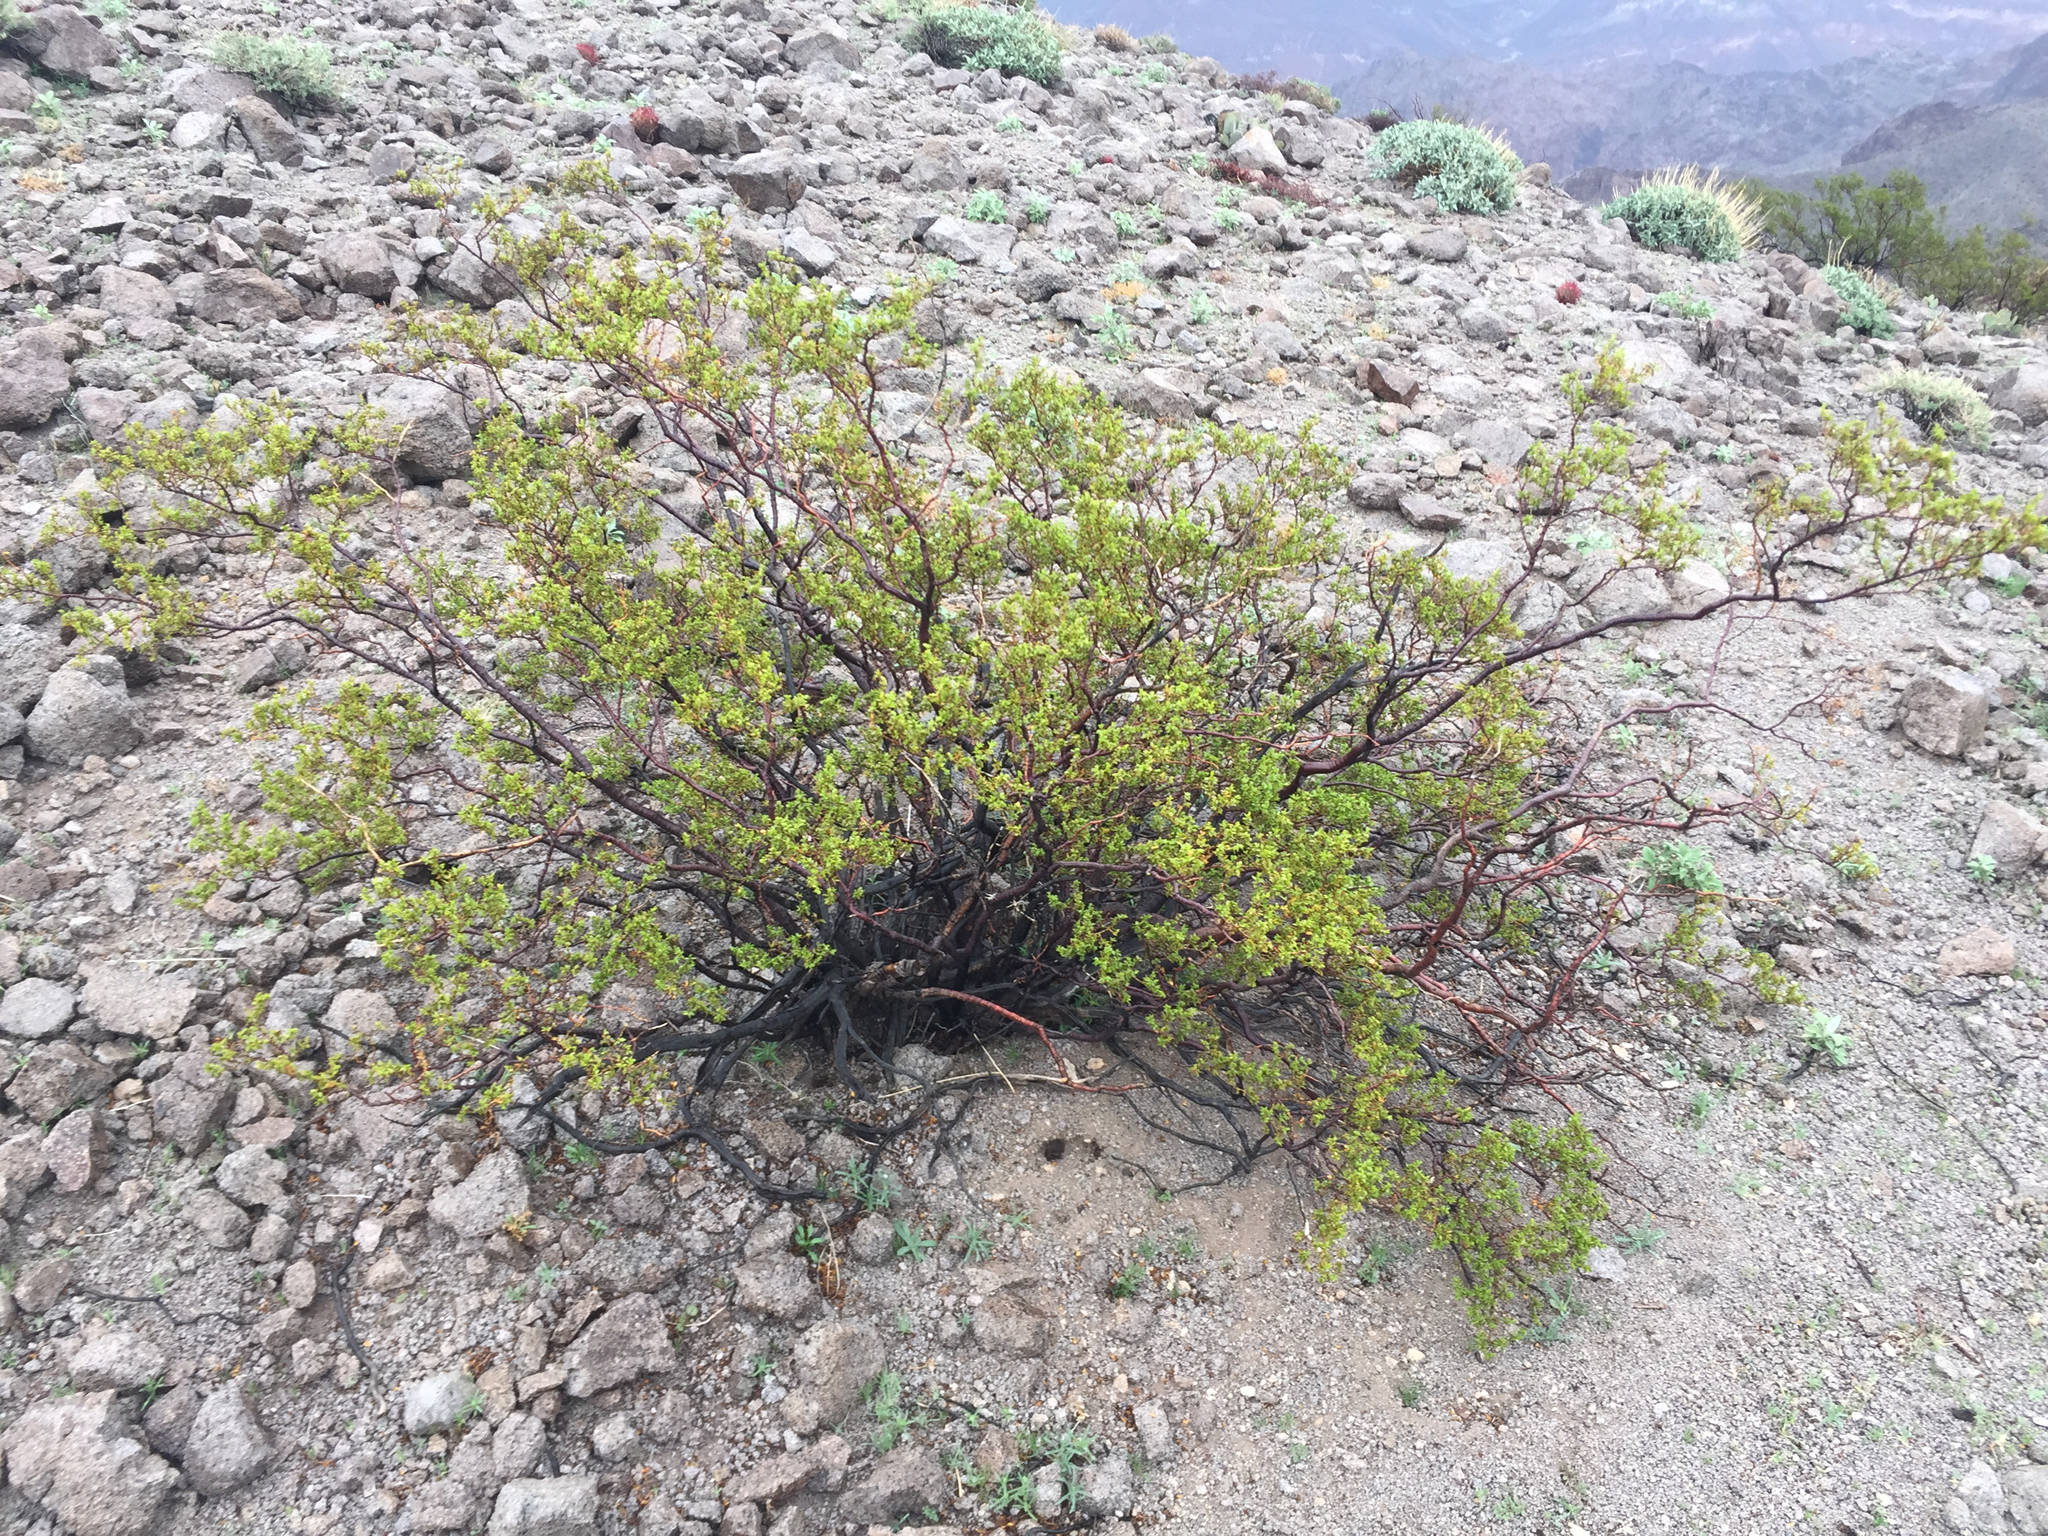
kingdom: Plantae
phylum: Tracheophyta
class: Magnoliopsida
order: Zygophyllales
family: Zygophyllaceae
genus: Larrea
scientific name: Larrea tridentata
